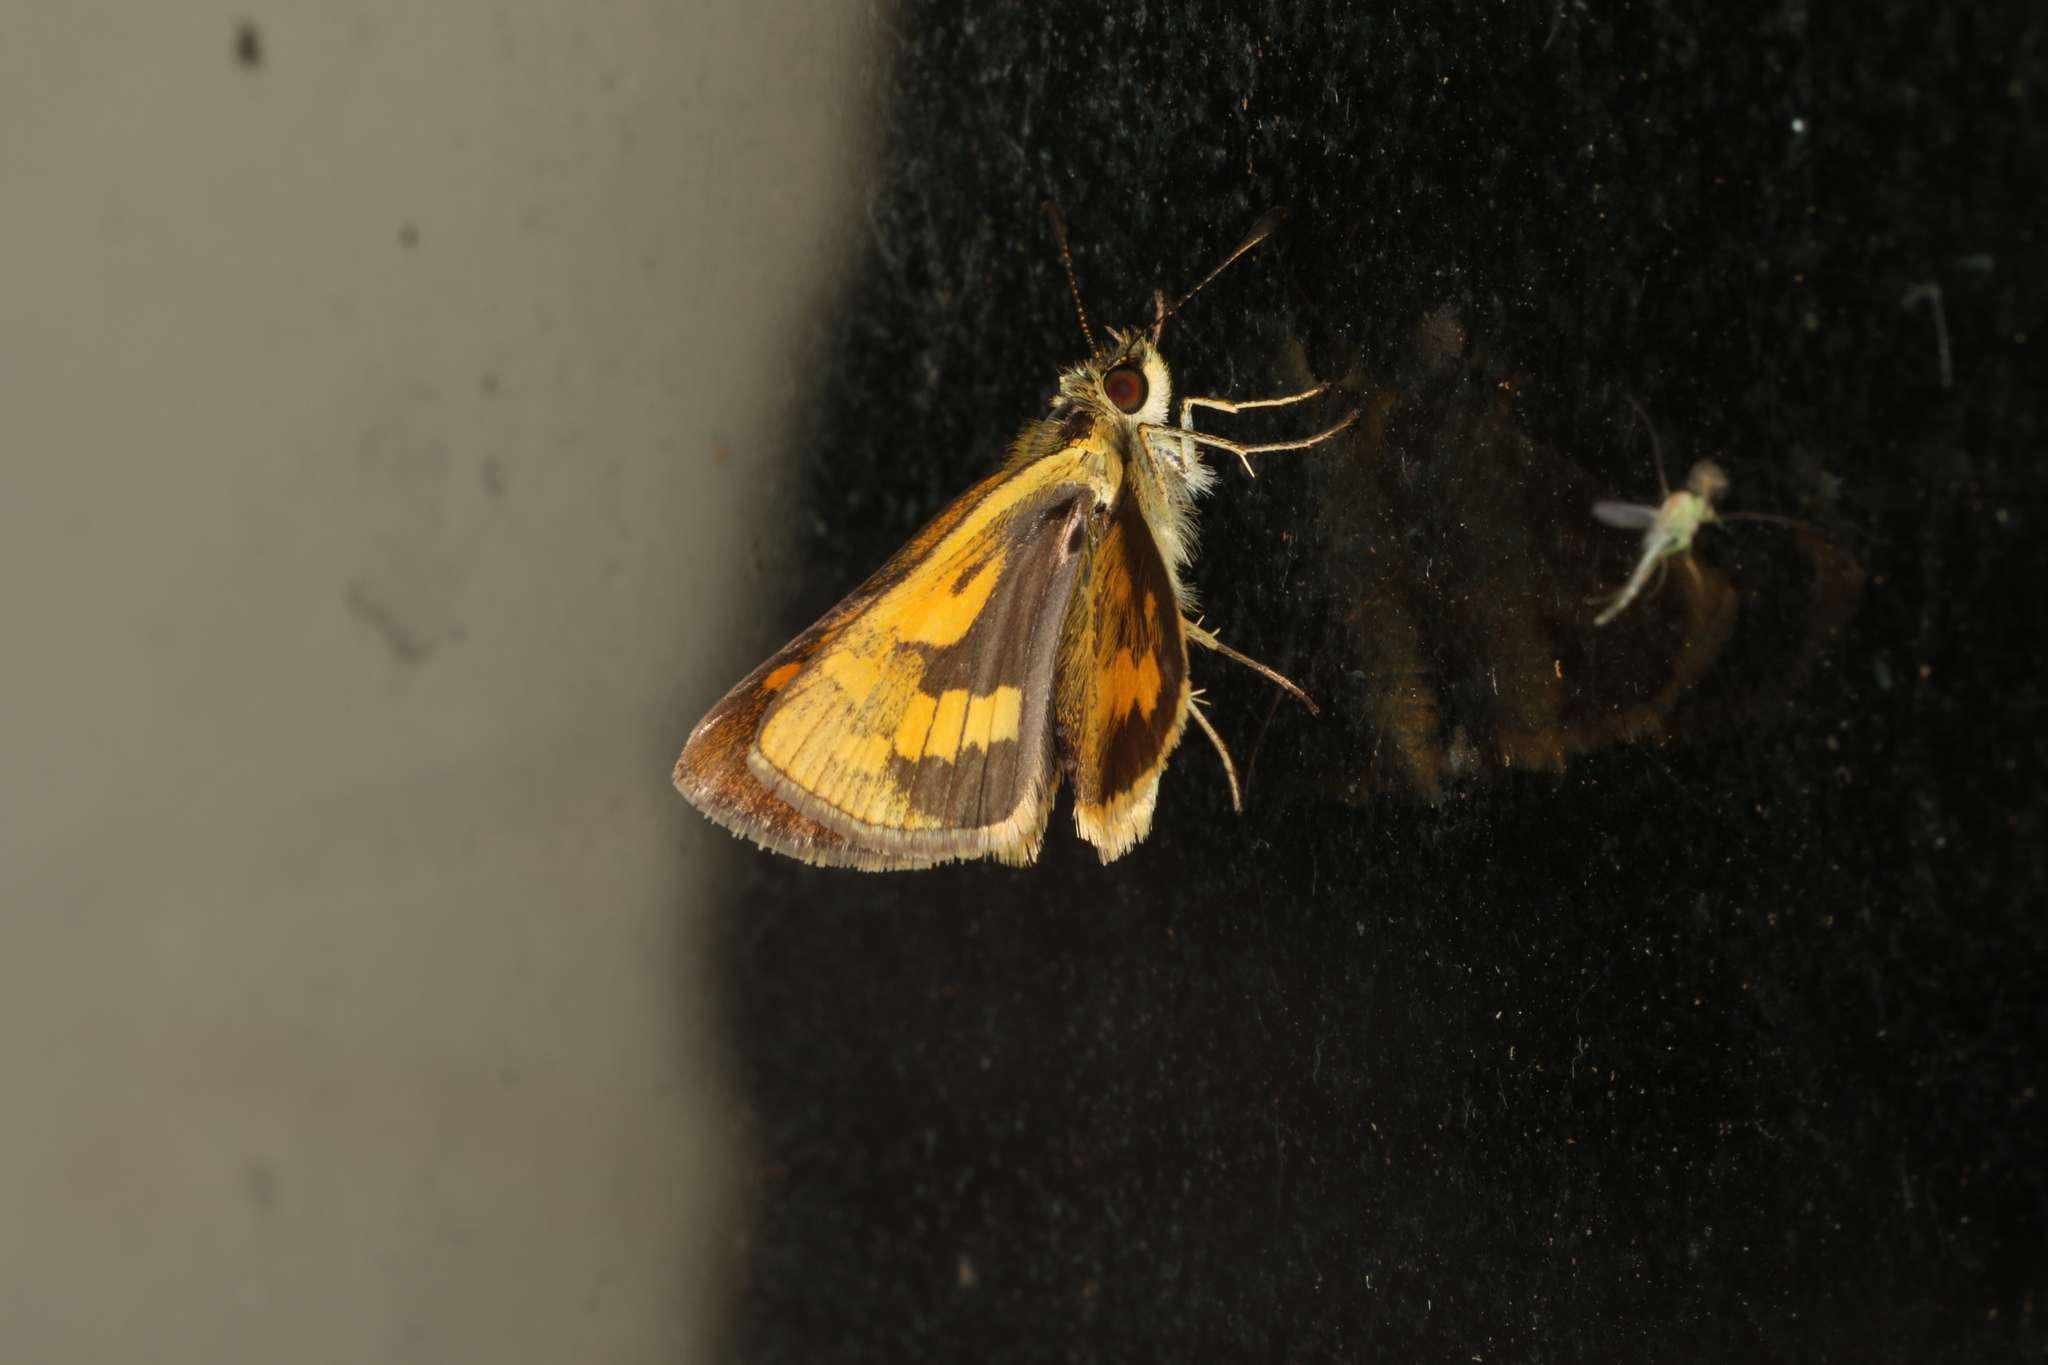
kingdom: Animalia
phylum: Arthropoda
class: Insecta
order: Lepidoptera
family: Hesperiidae
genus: Ocybadistes
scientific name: Ocybadistes walkeri
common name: Yellow-banded dart
